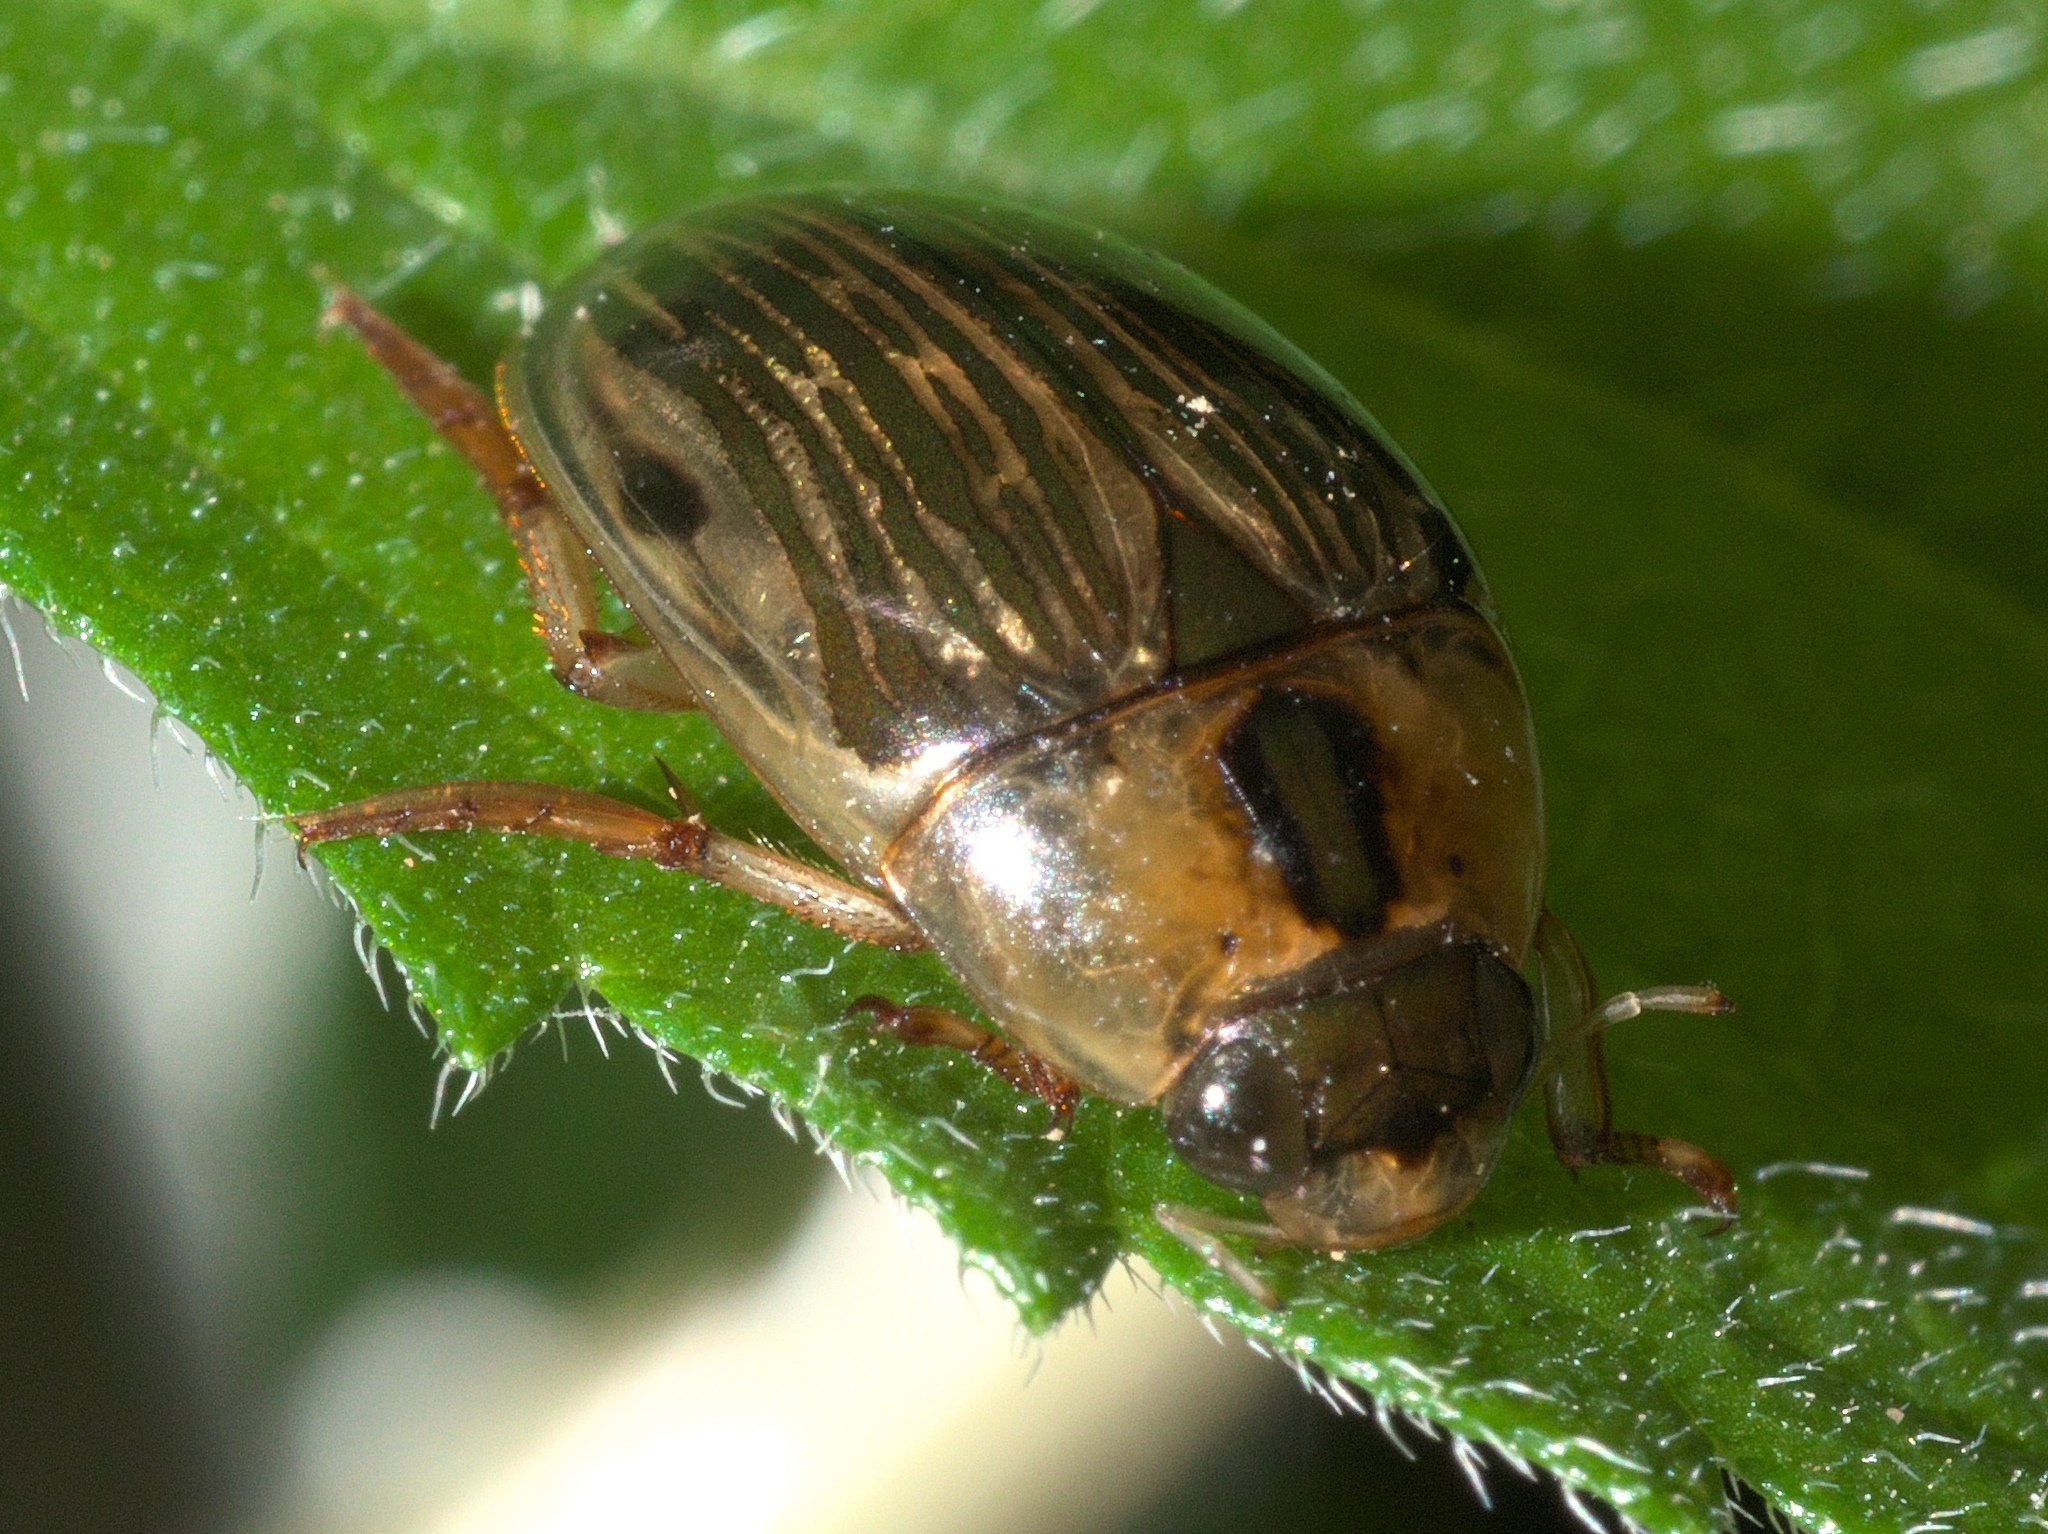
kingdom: Animalia
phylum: Arthropoda
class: Insecta
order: Coleoptera
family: Hydrophilidae
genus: Tropisternus
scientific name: Tropisternus collaris
